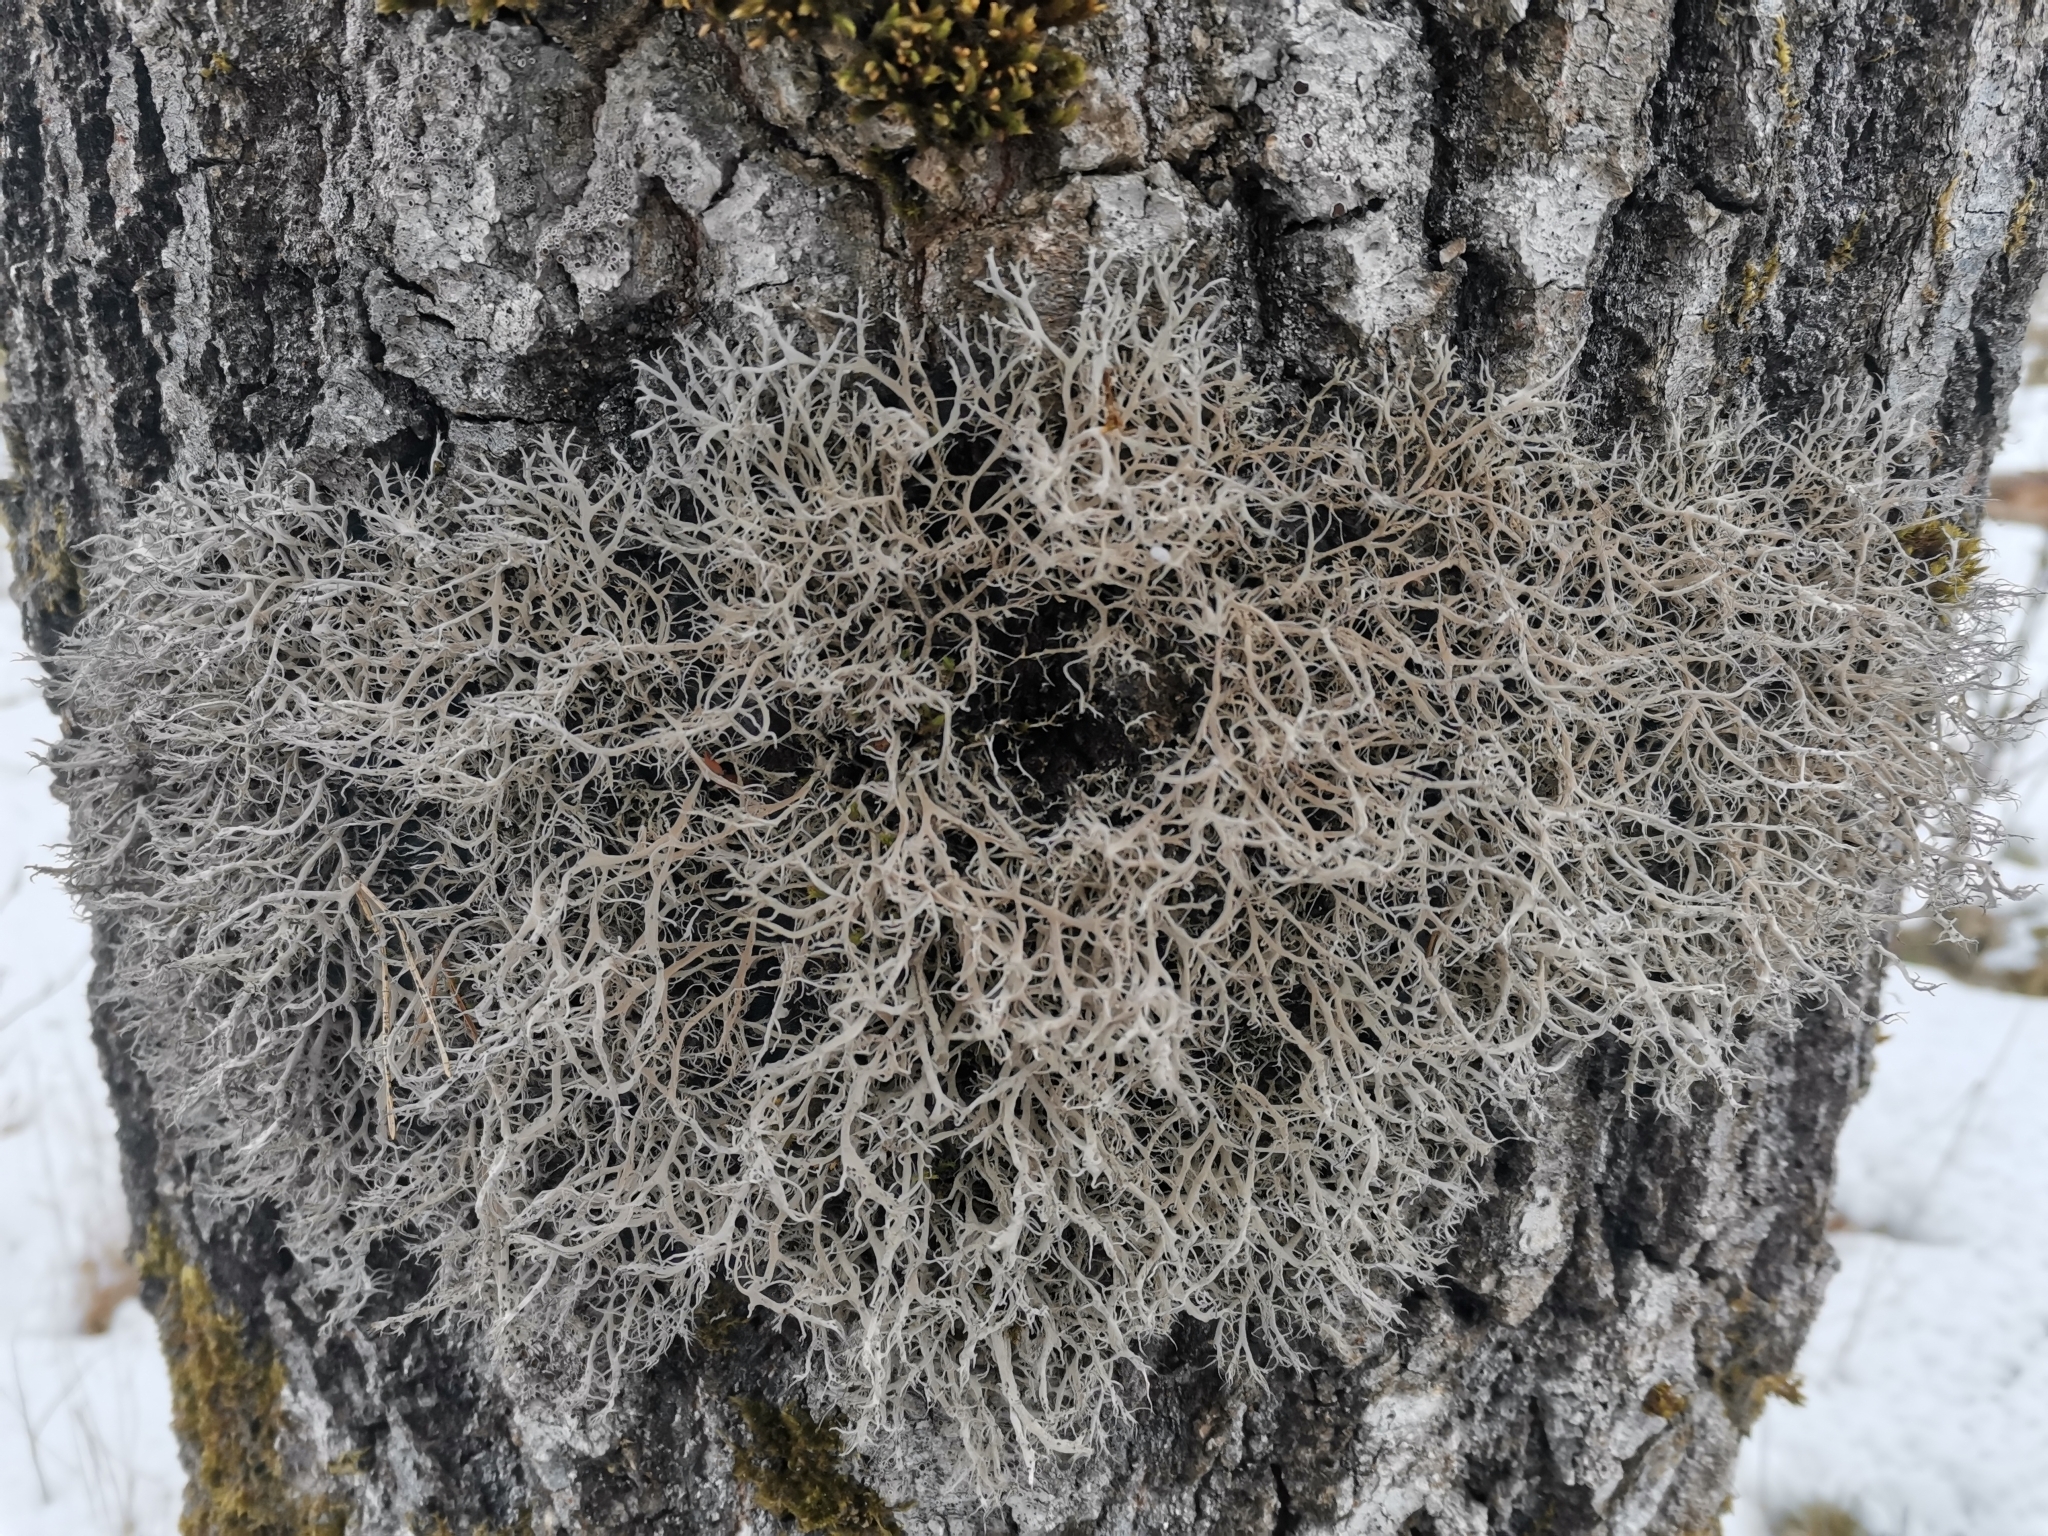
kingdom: Fungi
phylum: Ascomycota
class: Lecanoromycetes
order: Caliciales
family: Physciaceae
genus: Anaptychia
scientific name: Anaptychia ciliaris
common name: Great ciliated lichen
